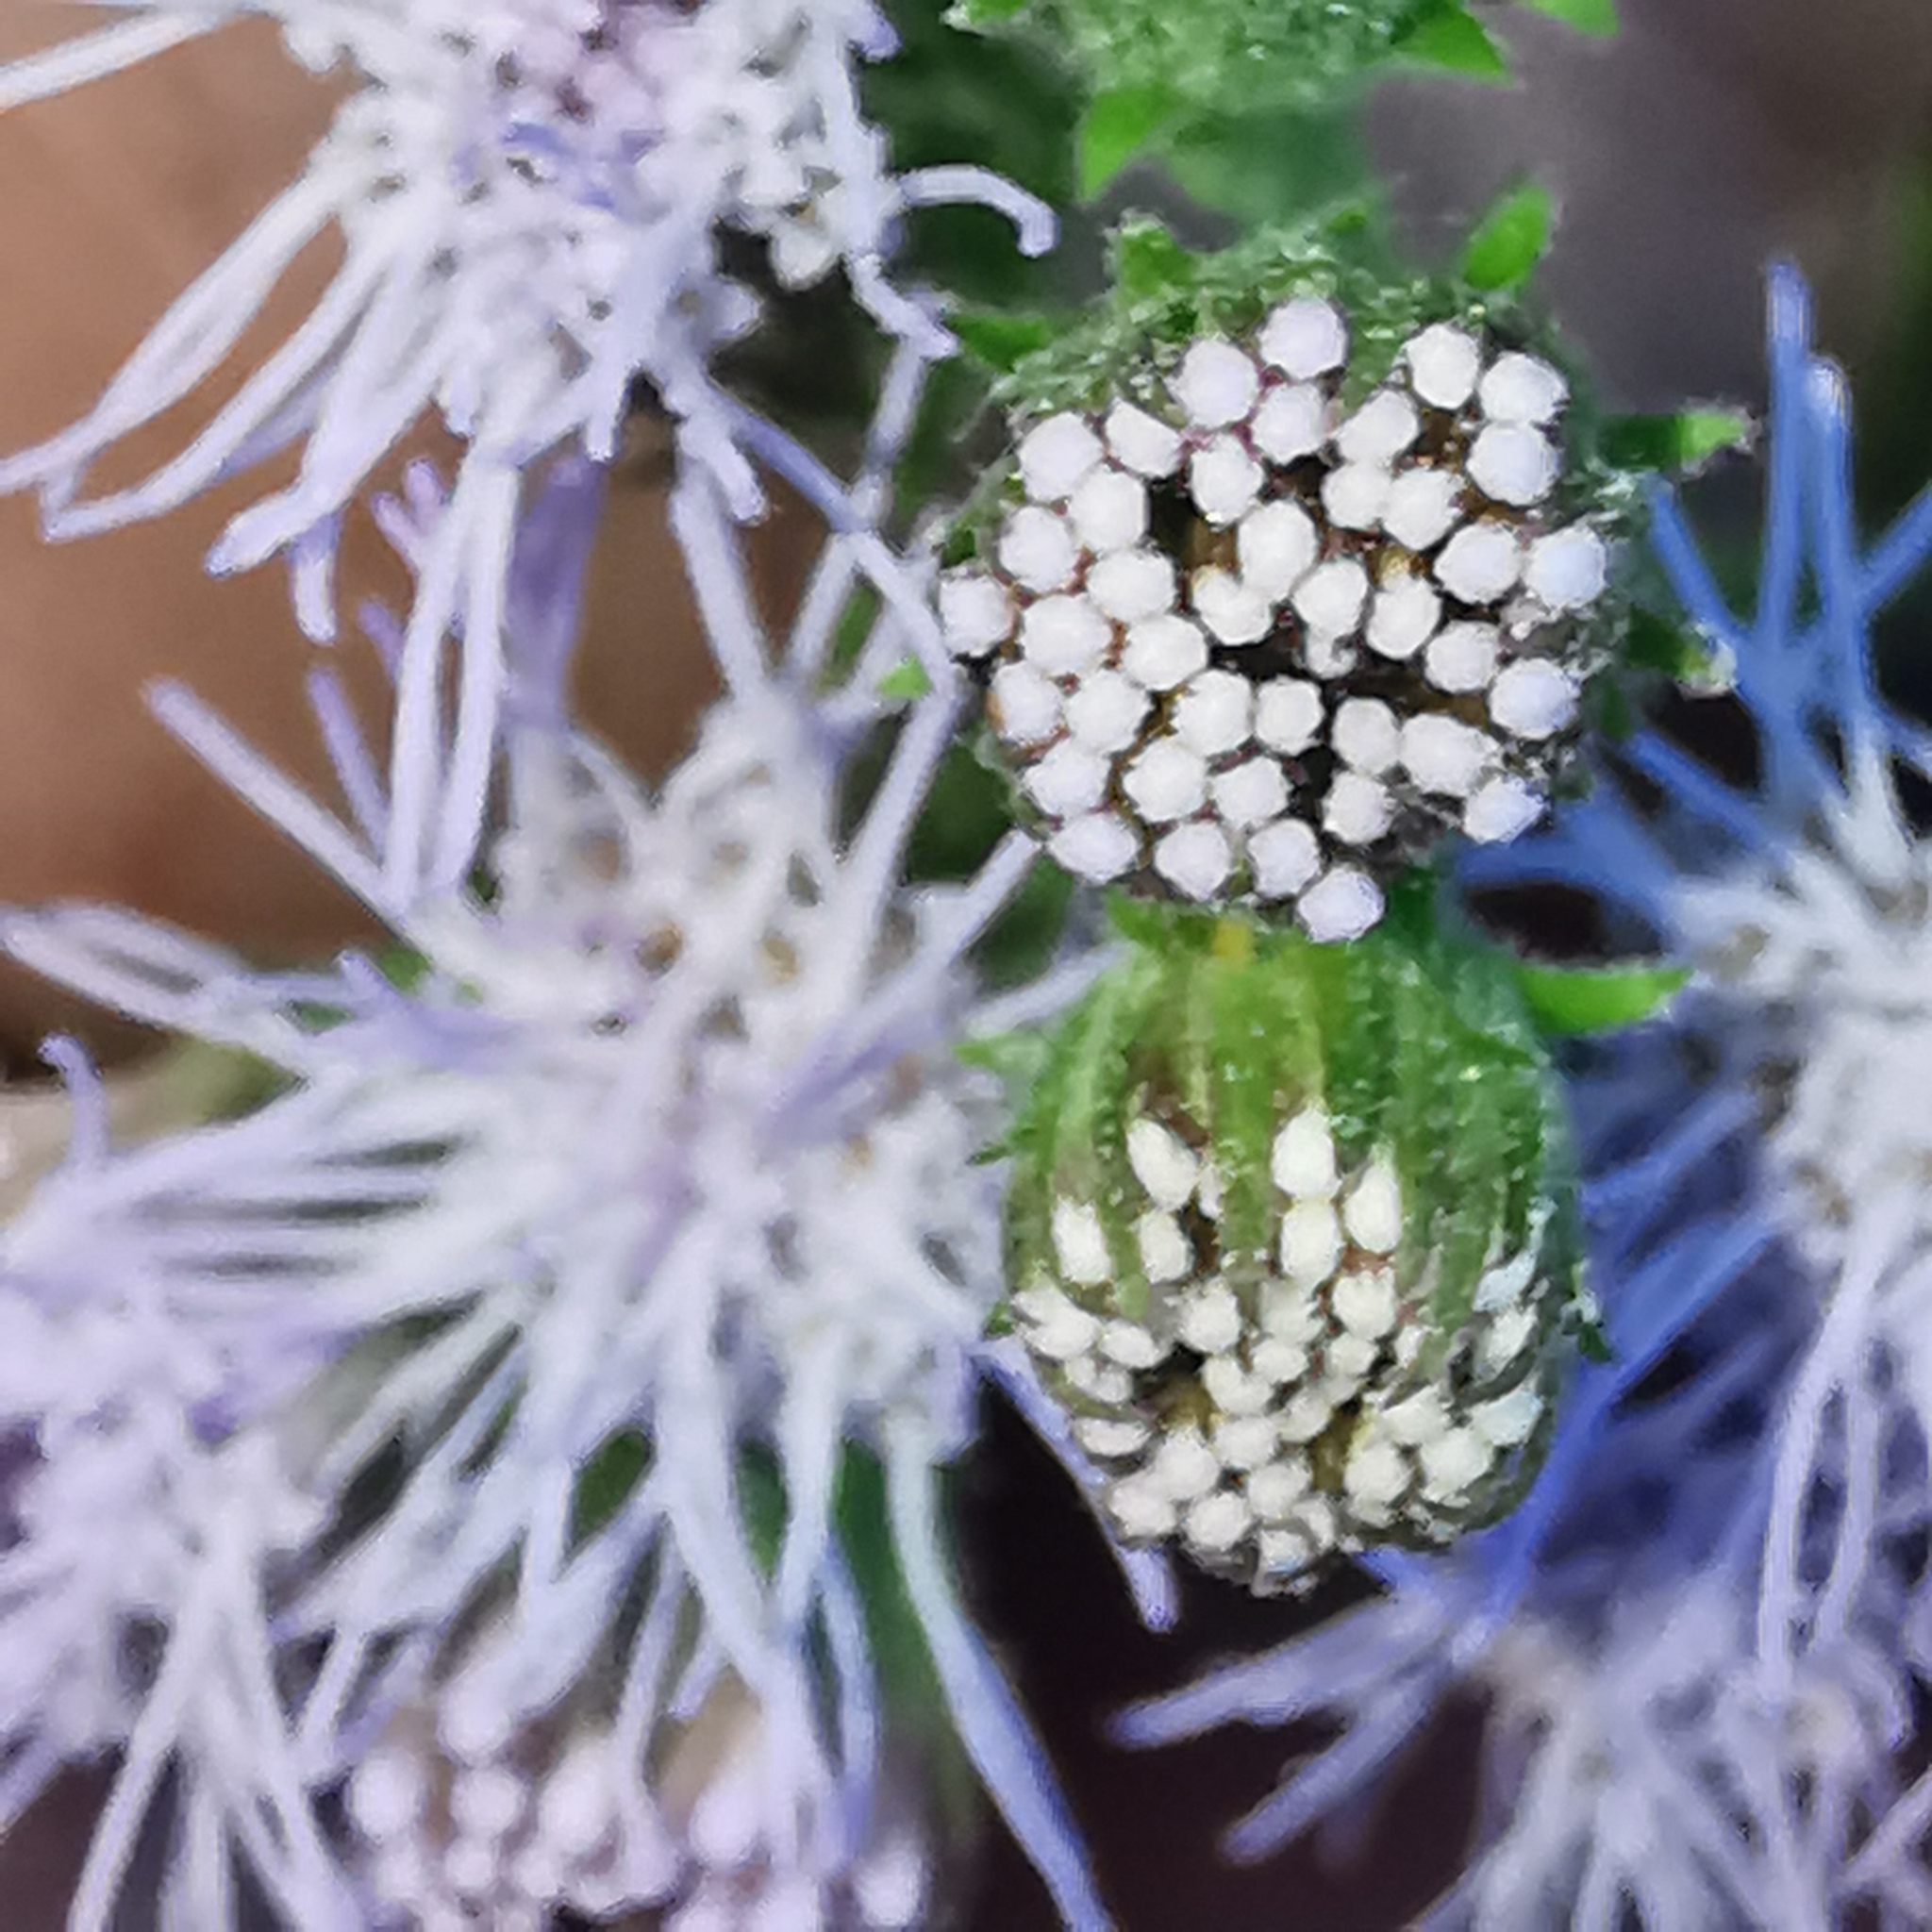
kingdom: Plantae
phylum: Tracheophyta
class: Magnoliopsida
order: Asterales
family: Asteraceae
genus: Tamaulipa
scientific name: Tamaulipa azurea
